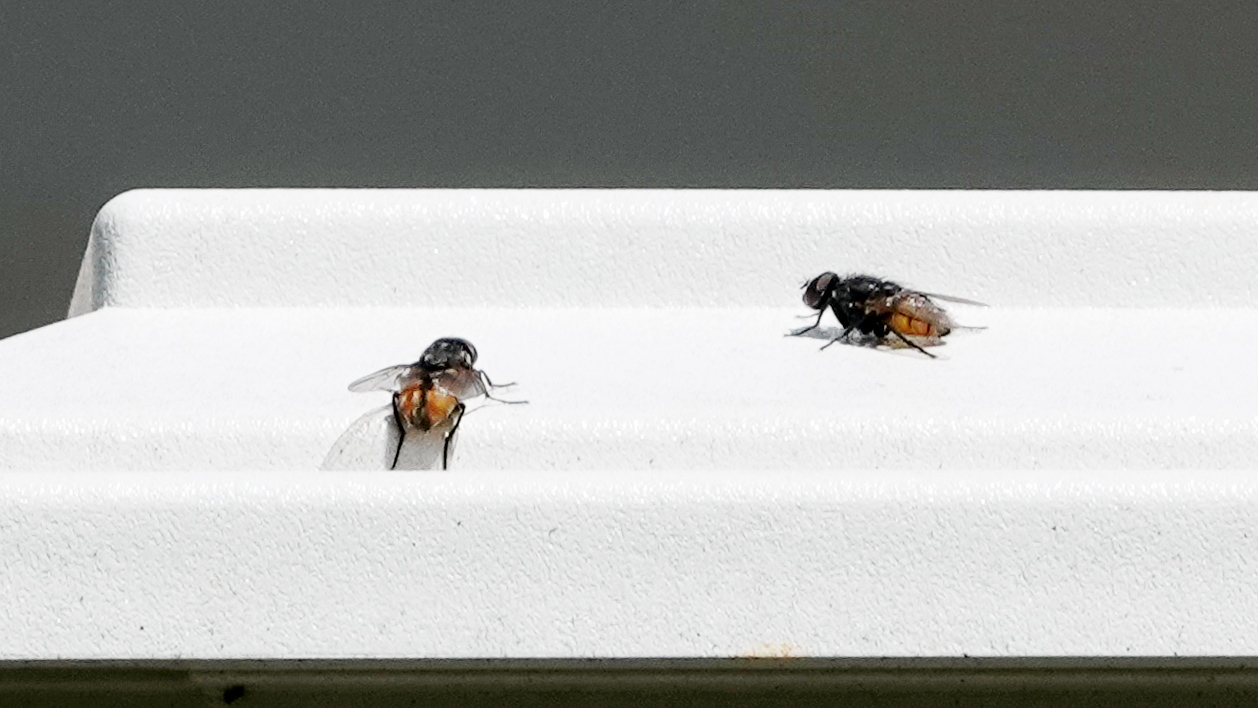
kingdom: Animalia
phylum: Arthropoda
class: Insecta
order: Diptera
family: Muscidae
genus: Musca
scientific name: Musca autumnalis
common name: Face fly
